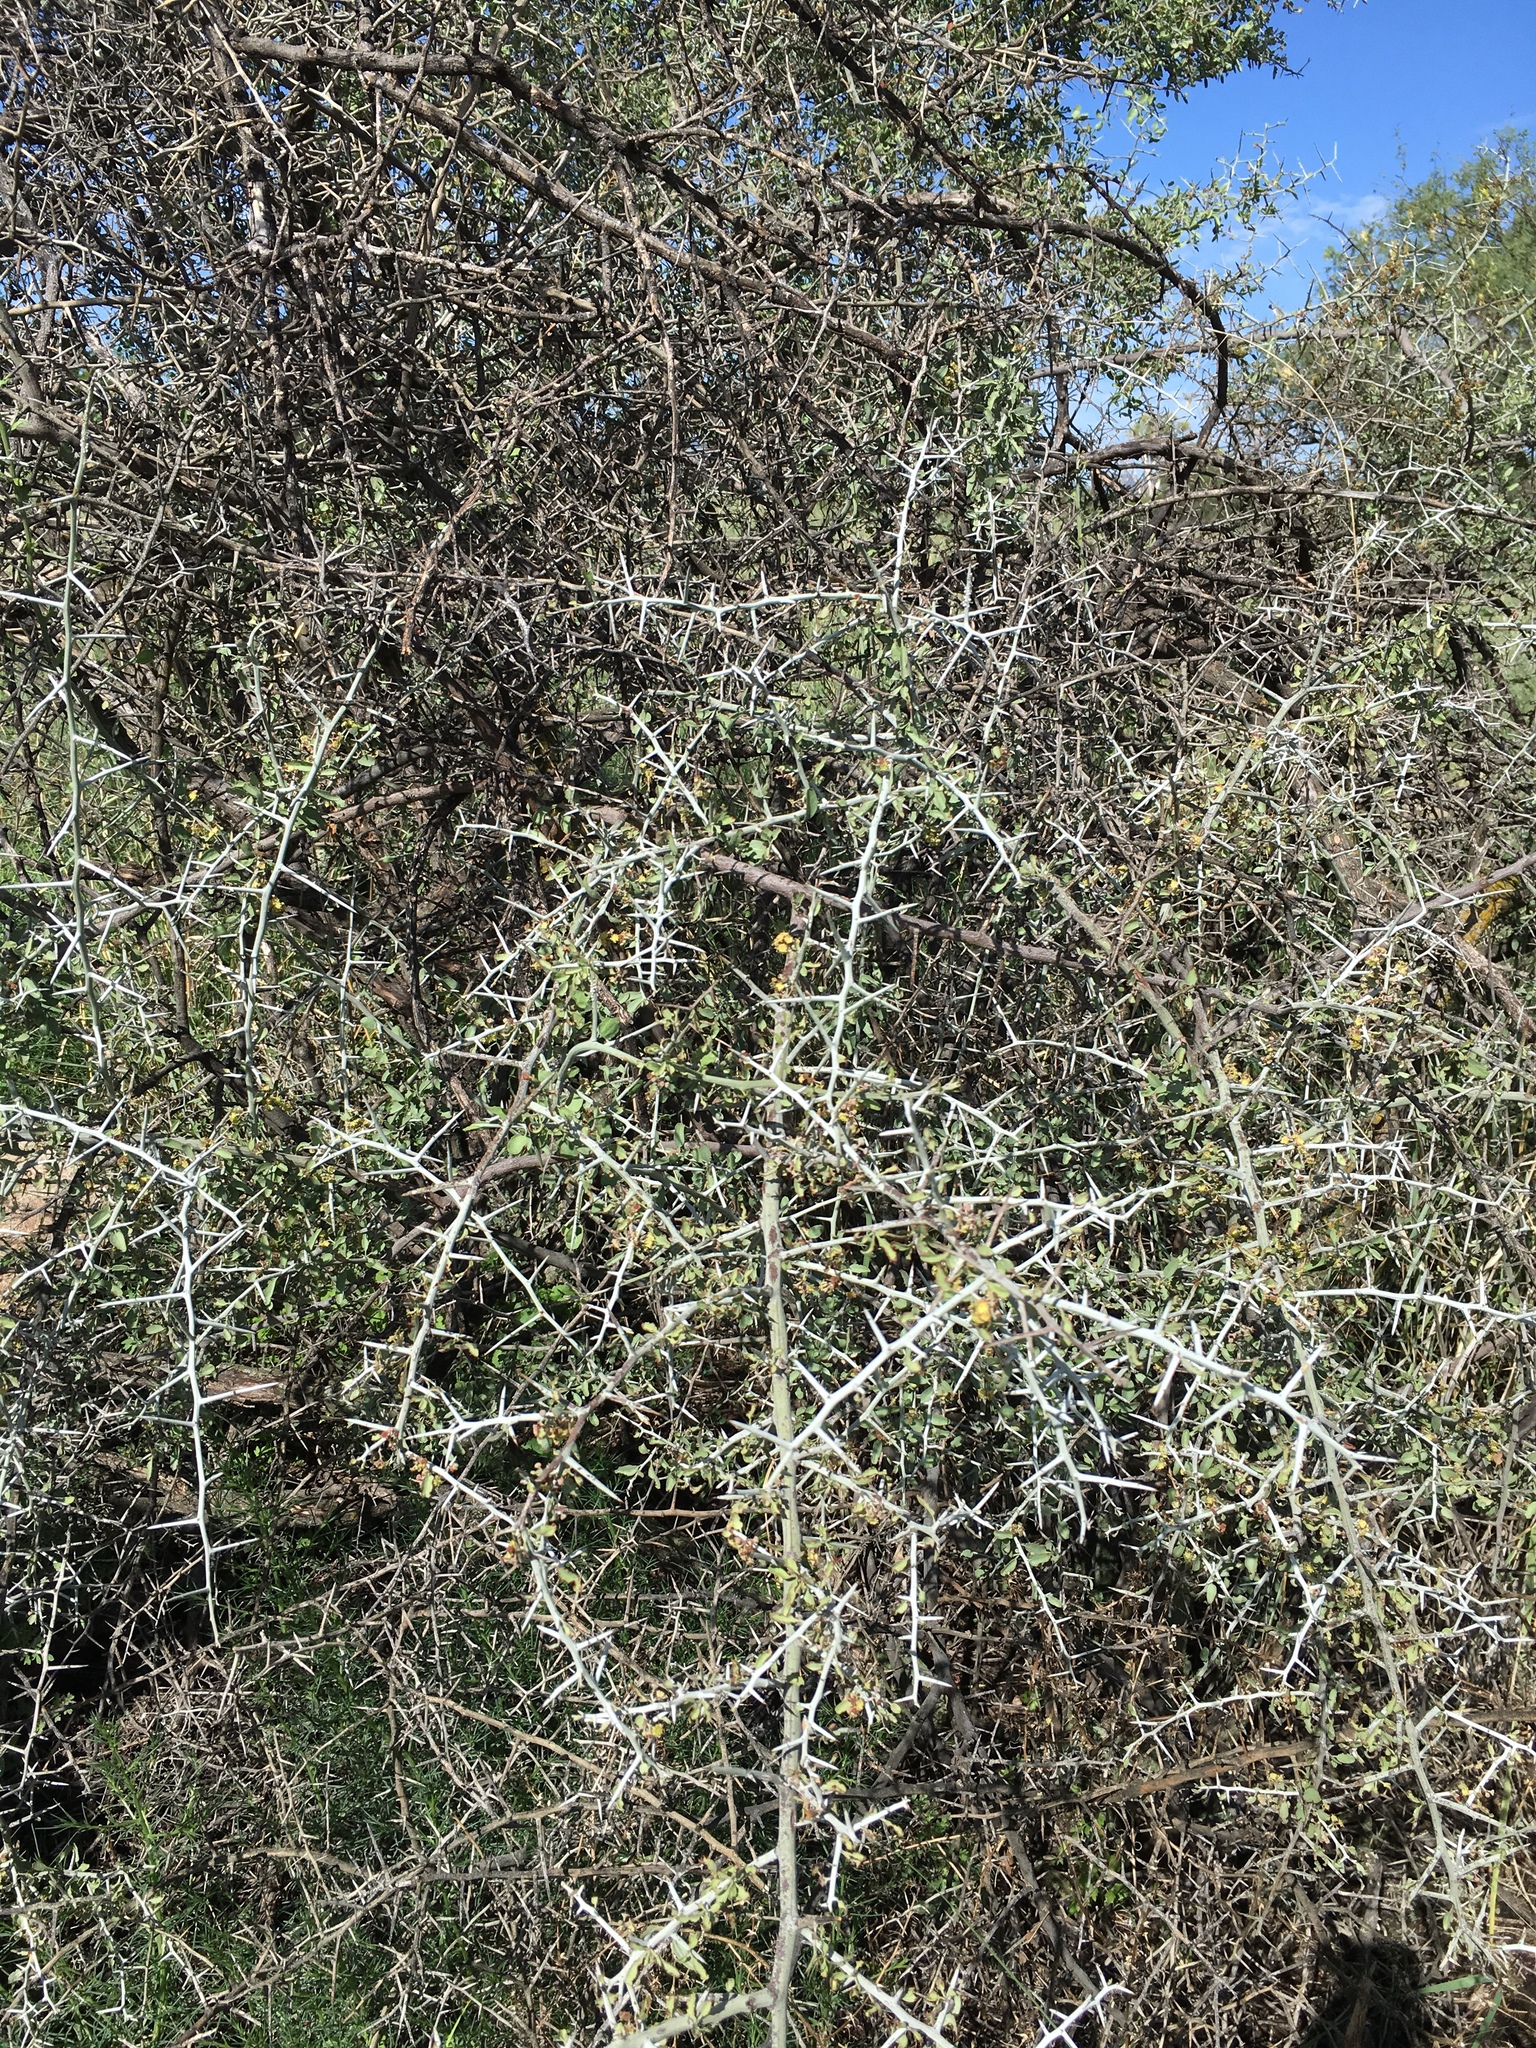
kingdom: Plantae
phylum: Tracheophyta
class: Magnoliopsida
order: Rosales
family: Rhamnaceae
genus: Sarcomphalus
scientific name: Sarcomphalus obtusifolius
